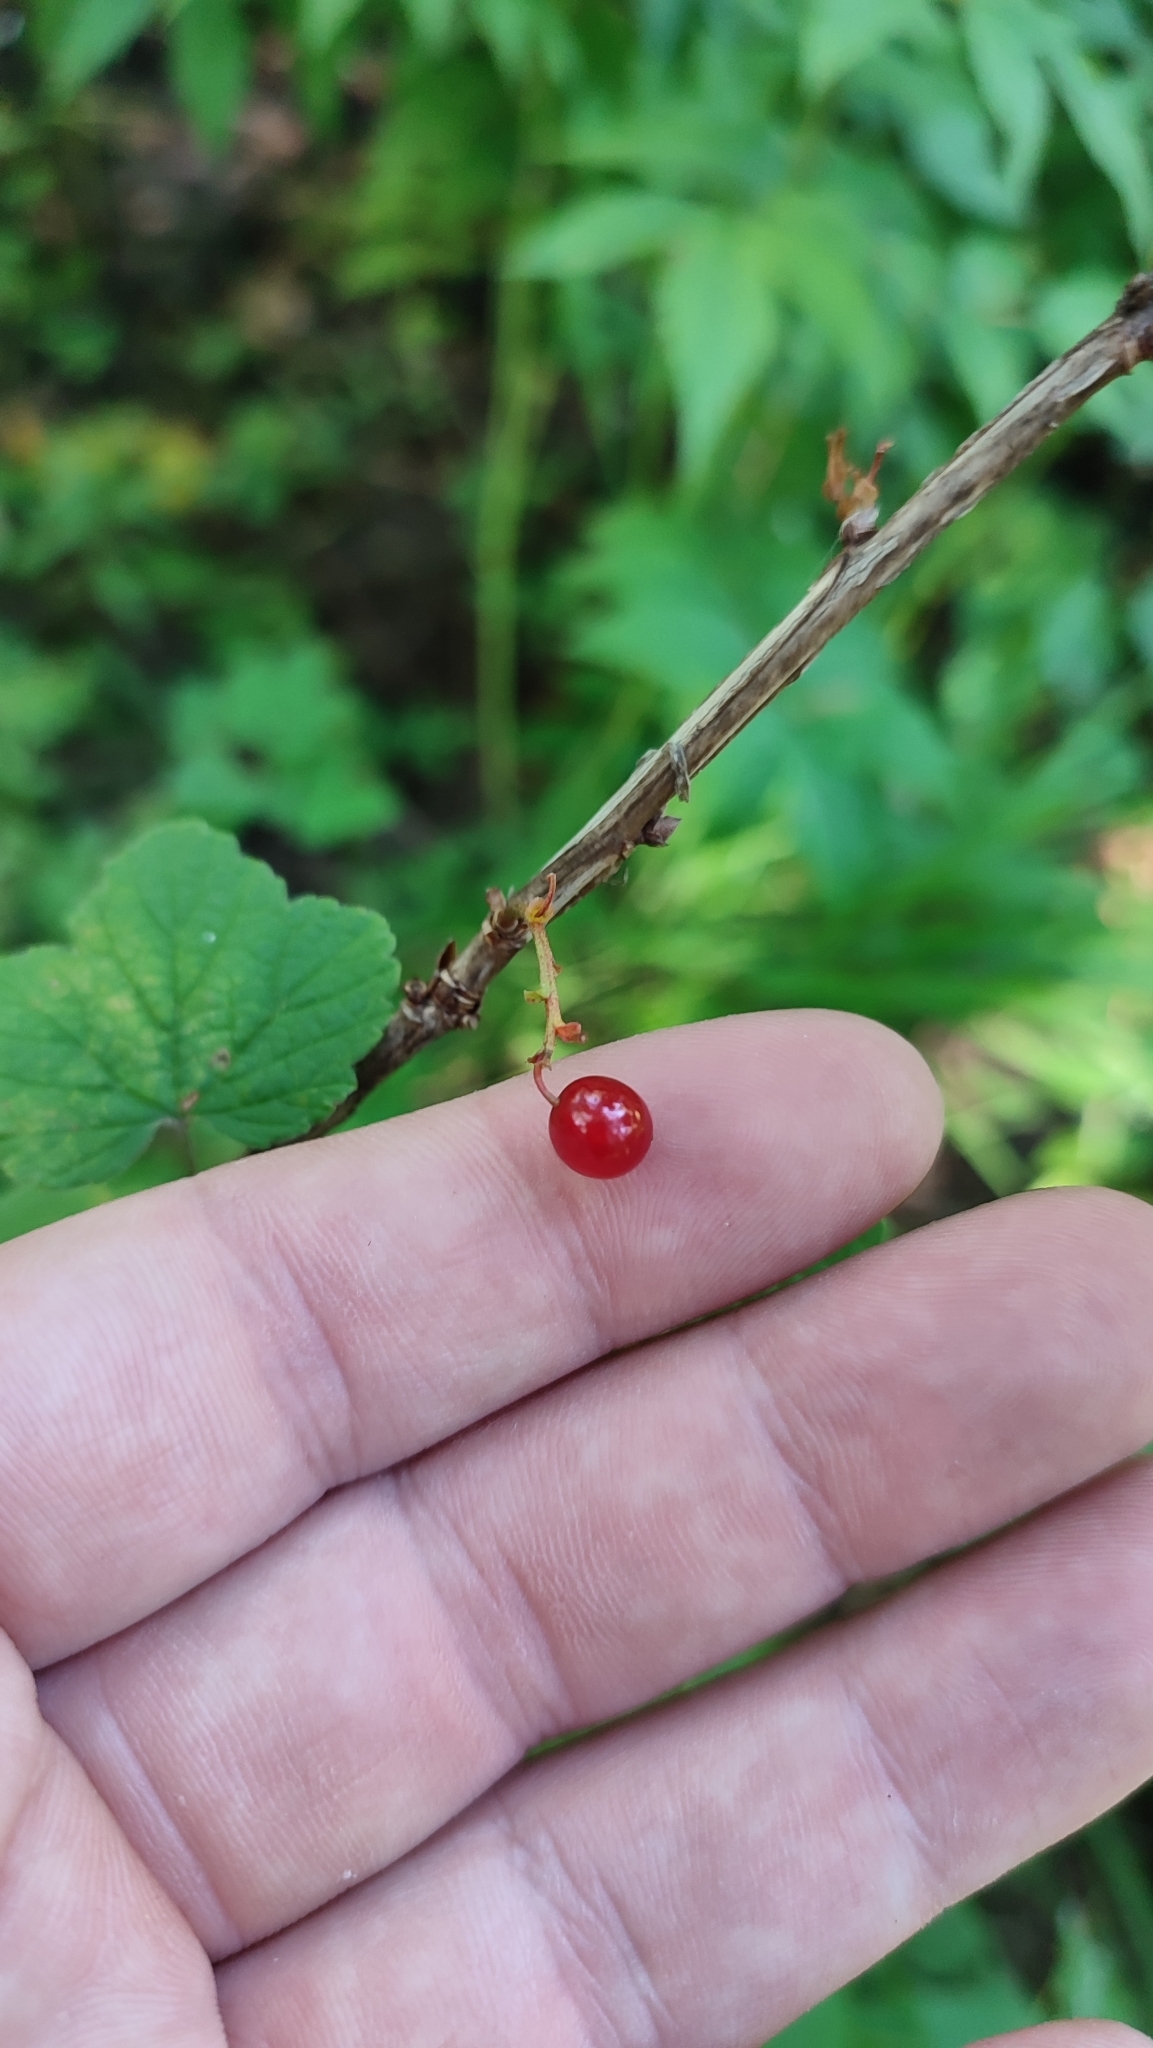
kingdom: Plantae
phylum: Tracheophyta
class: Magnoliopsida
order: Saxifragales
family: Grossulariaceae
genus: Ribes
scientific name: Ribes spicatum
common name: Downy currant
